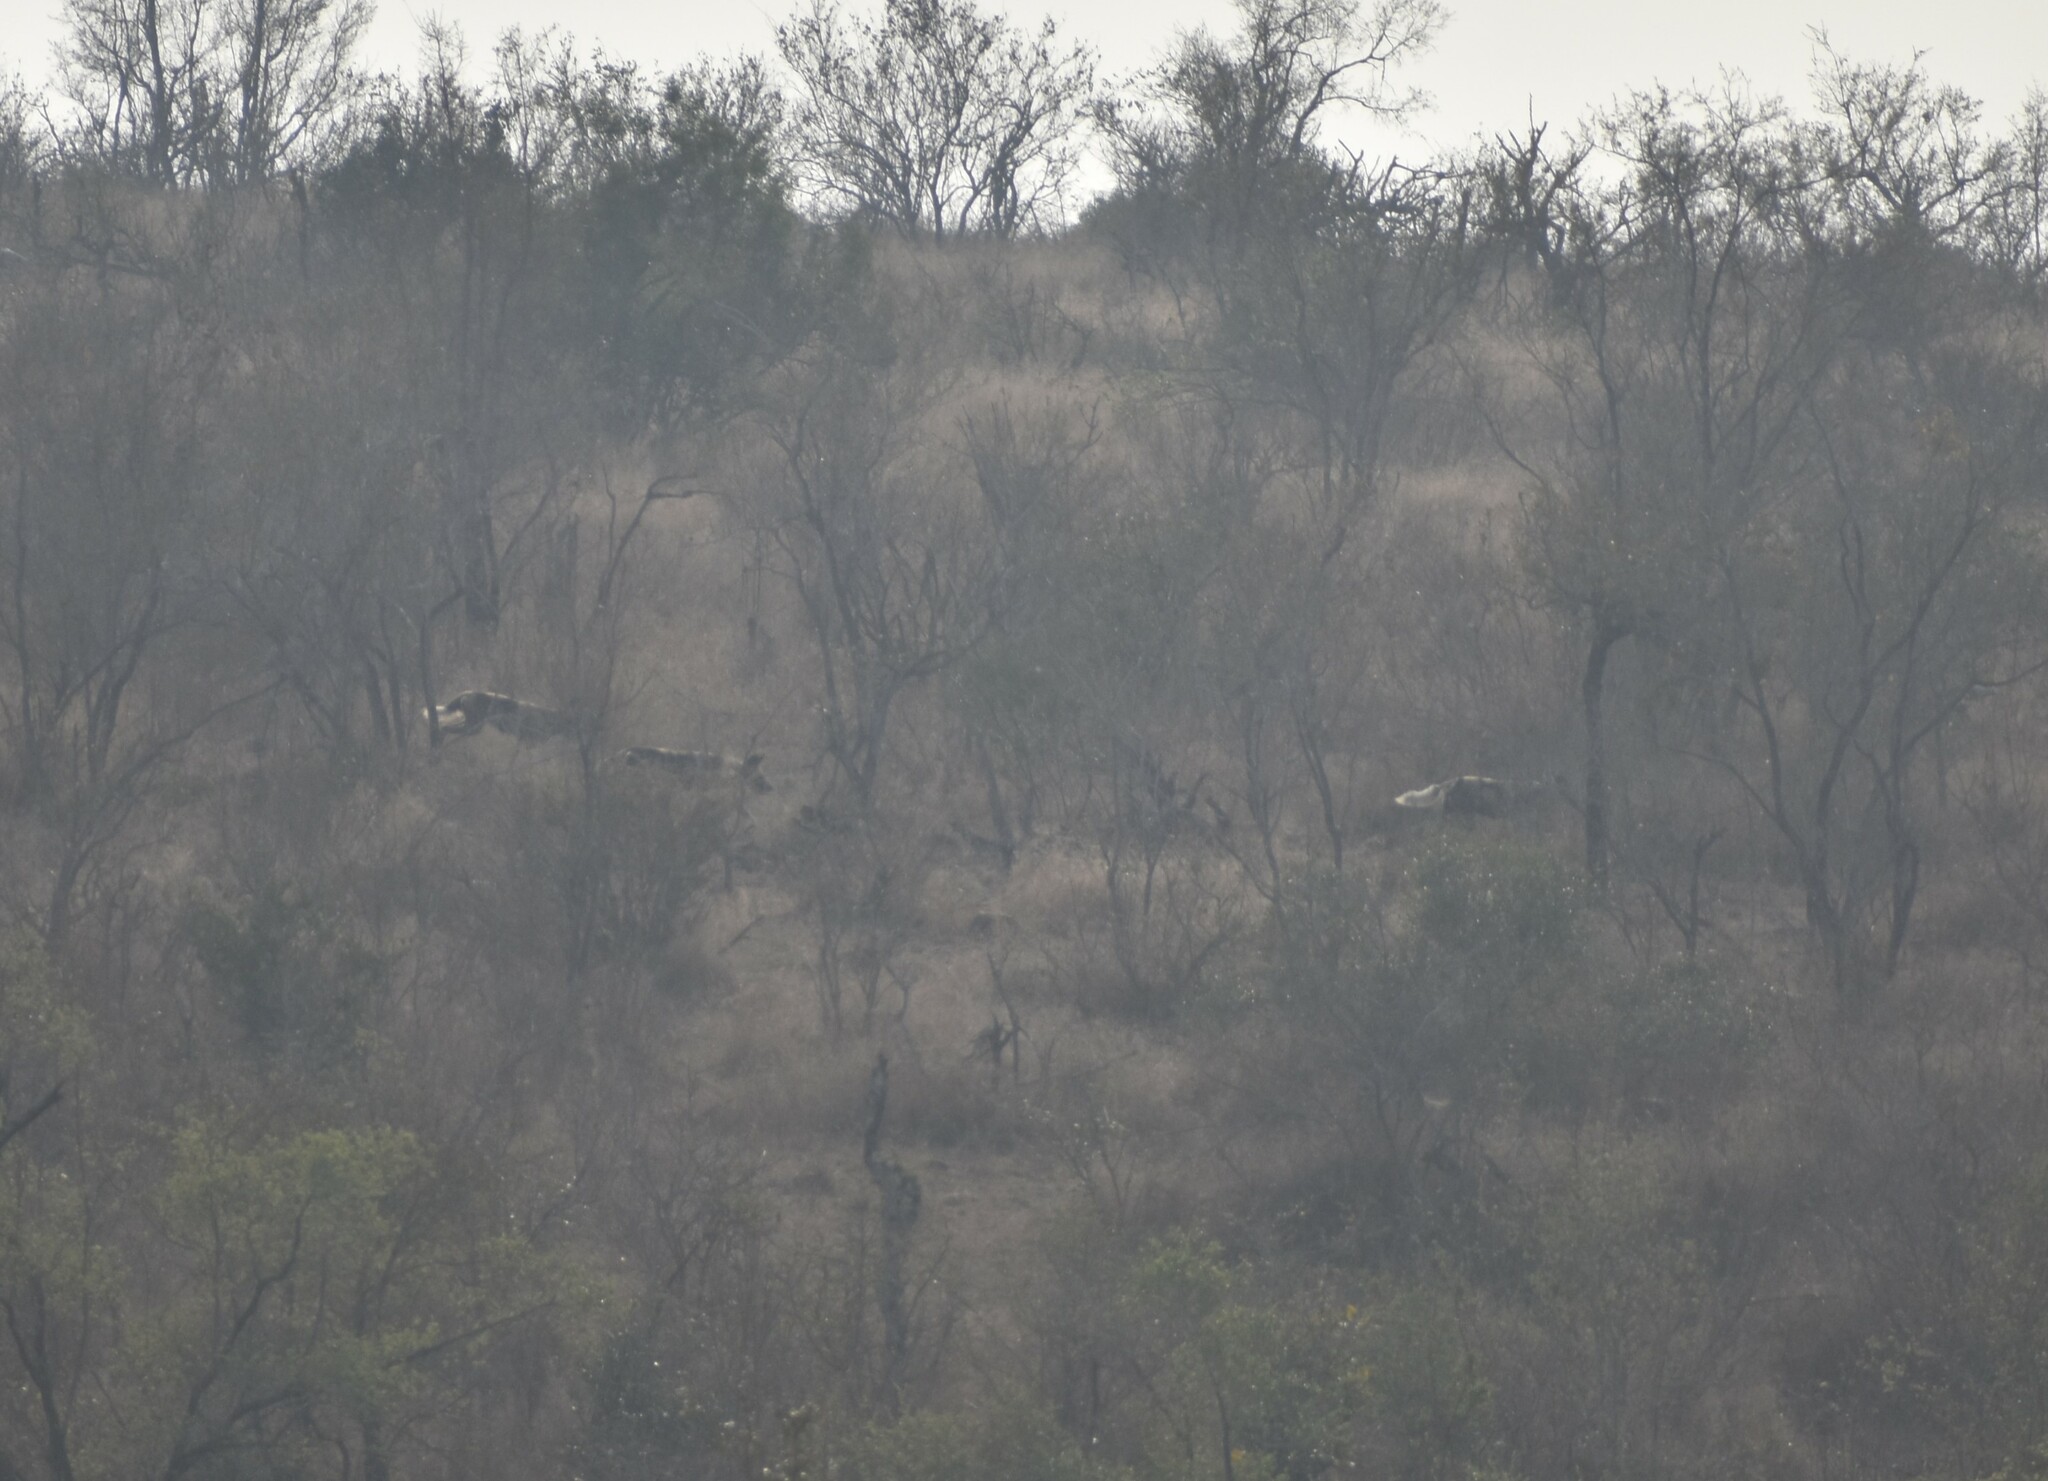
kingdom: Animalia
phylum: Chordata
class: Mammalia
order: Carnivora
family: Canidae
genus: Lycaon
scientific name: Lycaon pictus
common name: African wild dog
